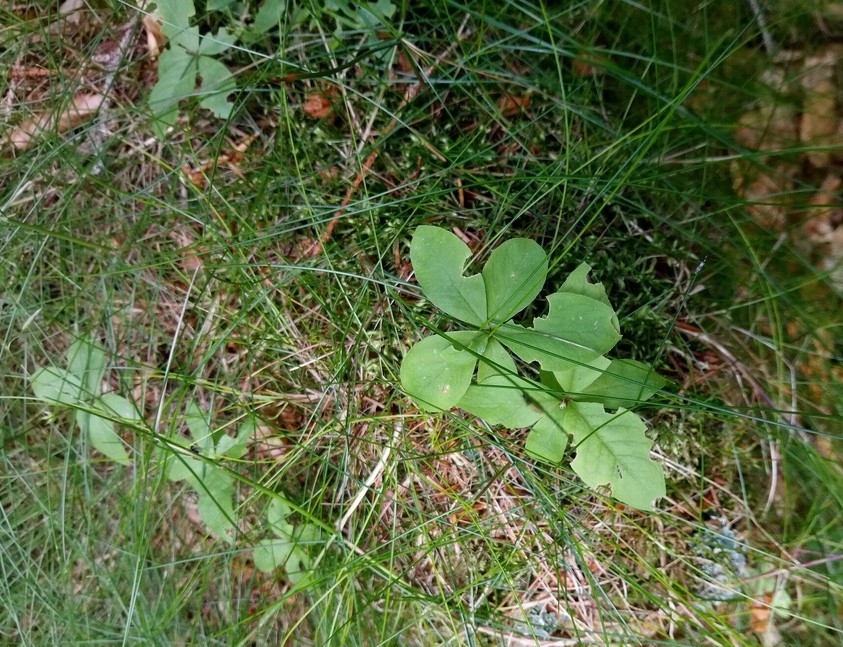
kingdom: Plantae
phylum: Tracheophyta
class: Magnoliopsida
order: Ericales
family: Primulaceae
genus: Lysimachia
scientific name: Lysimachia europaea
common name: Arctic starflower
